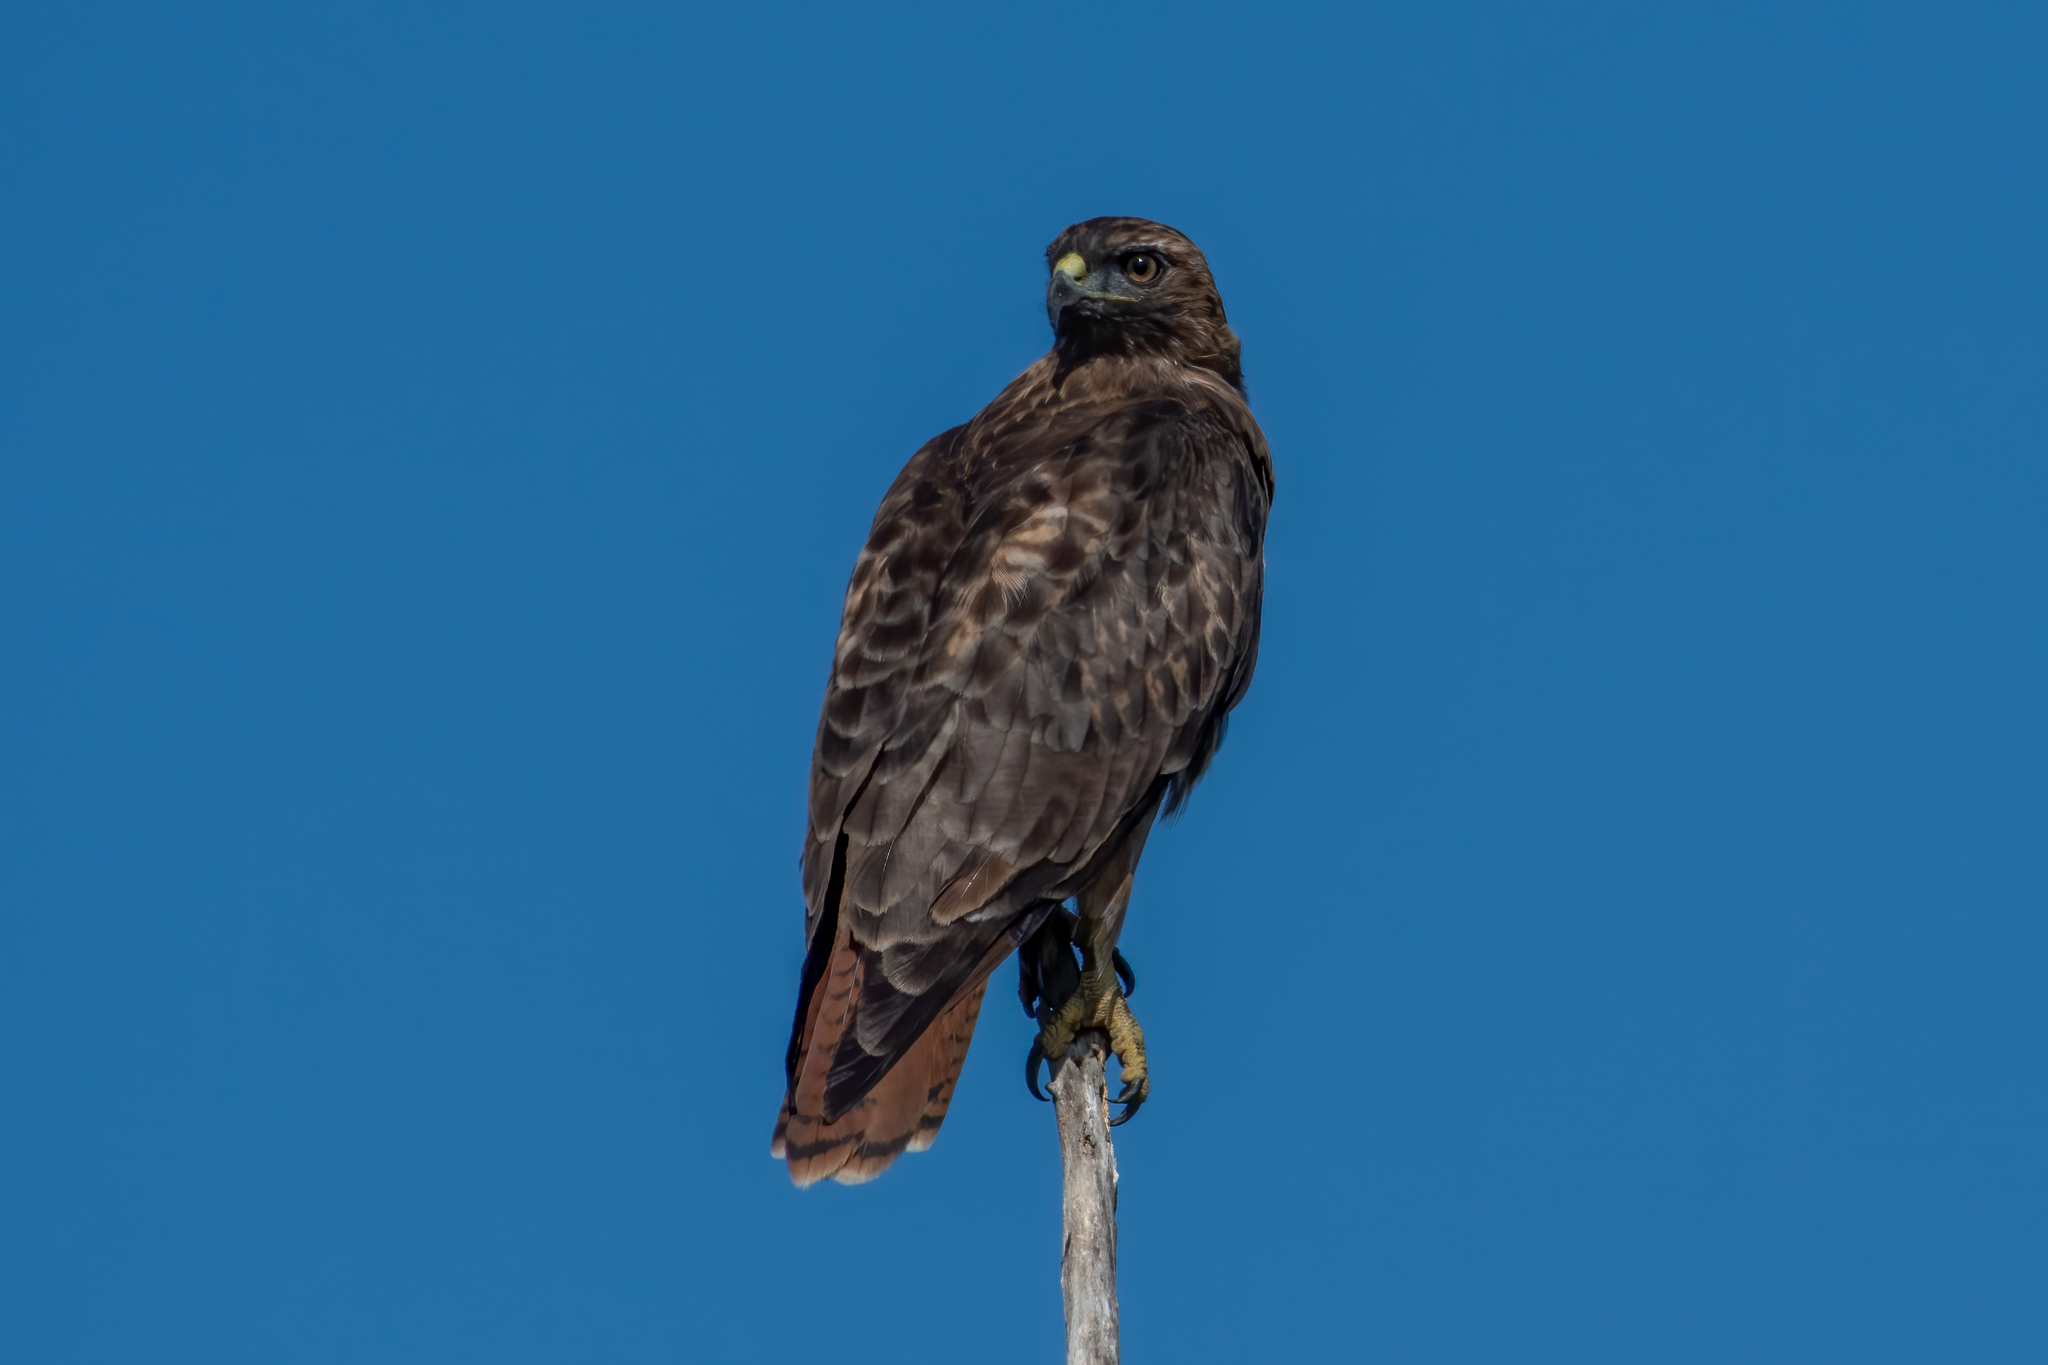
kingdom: Animalia
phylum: Chordata
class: Aves
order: Accipitriformes
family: Accipitridae
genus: Buteo
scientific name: Buteo jamaicensis
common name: Red-tailed hawk
